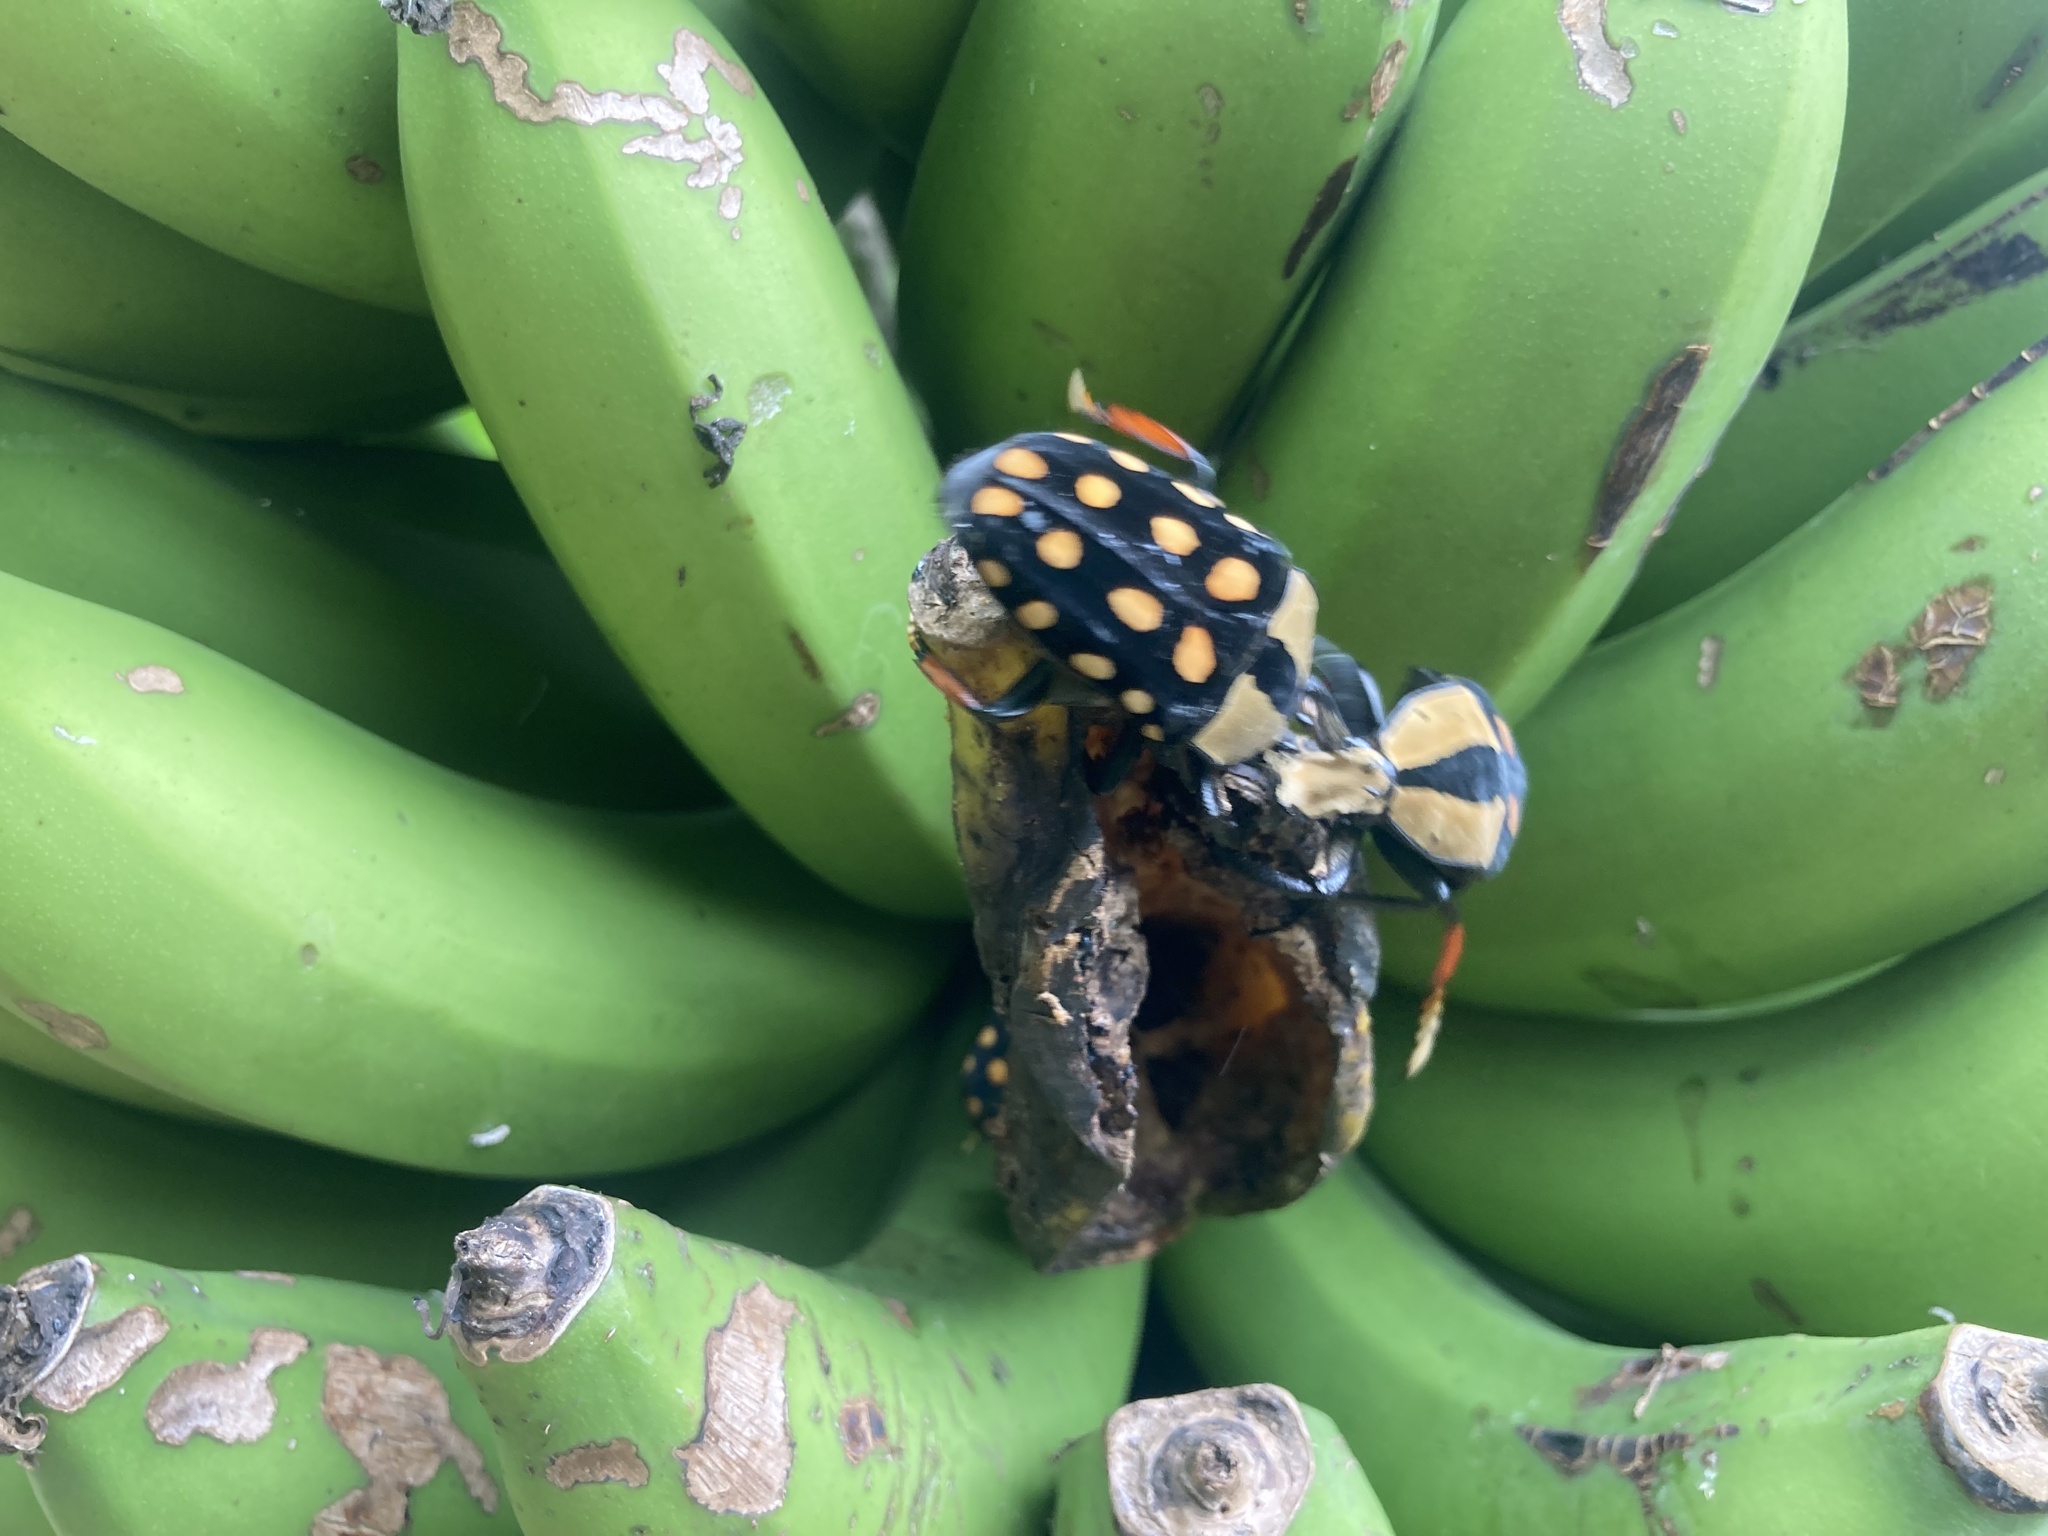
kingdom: Animalia
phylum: Arthropoda
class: Insecta
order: Coleoptera
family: Scarabaeidae
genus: Mecynorhina
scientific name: Mecynorhina passerinii
